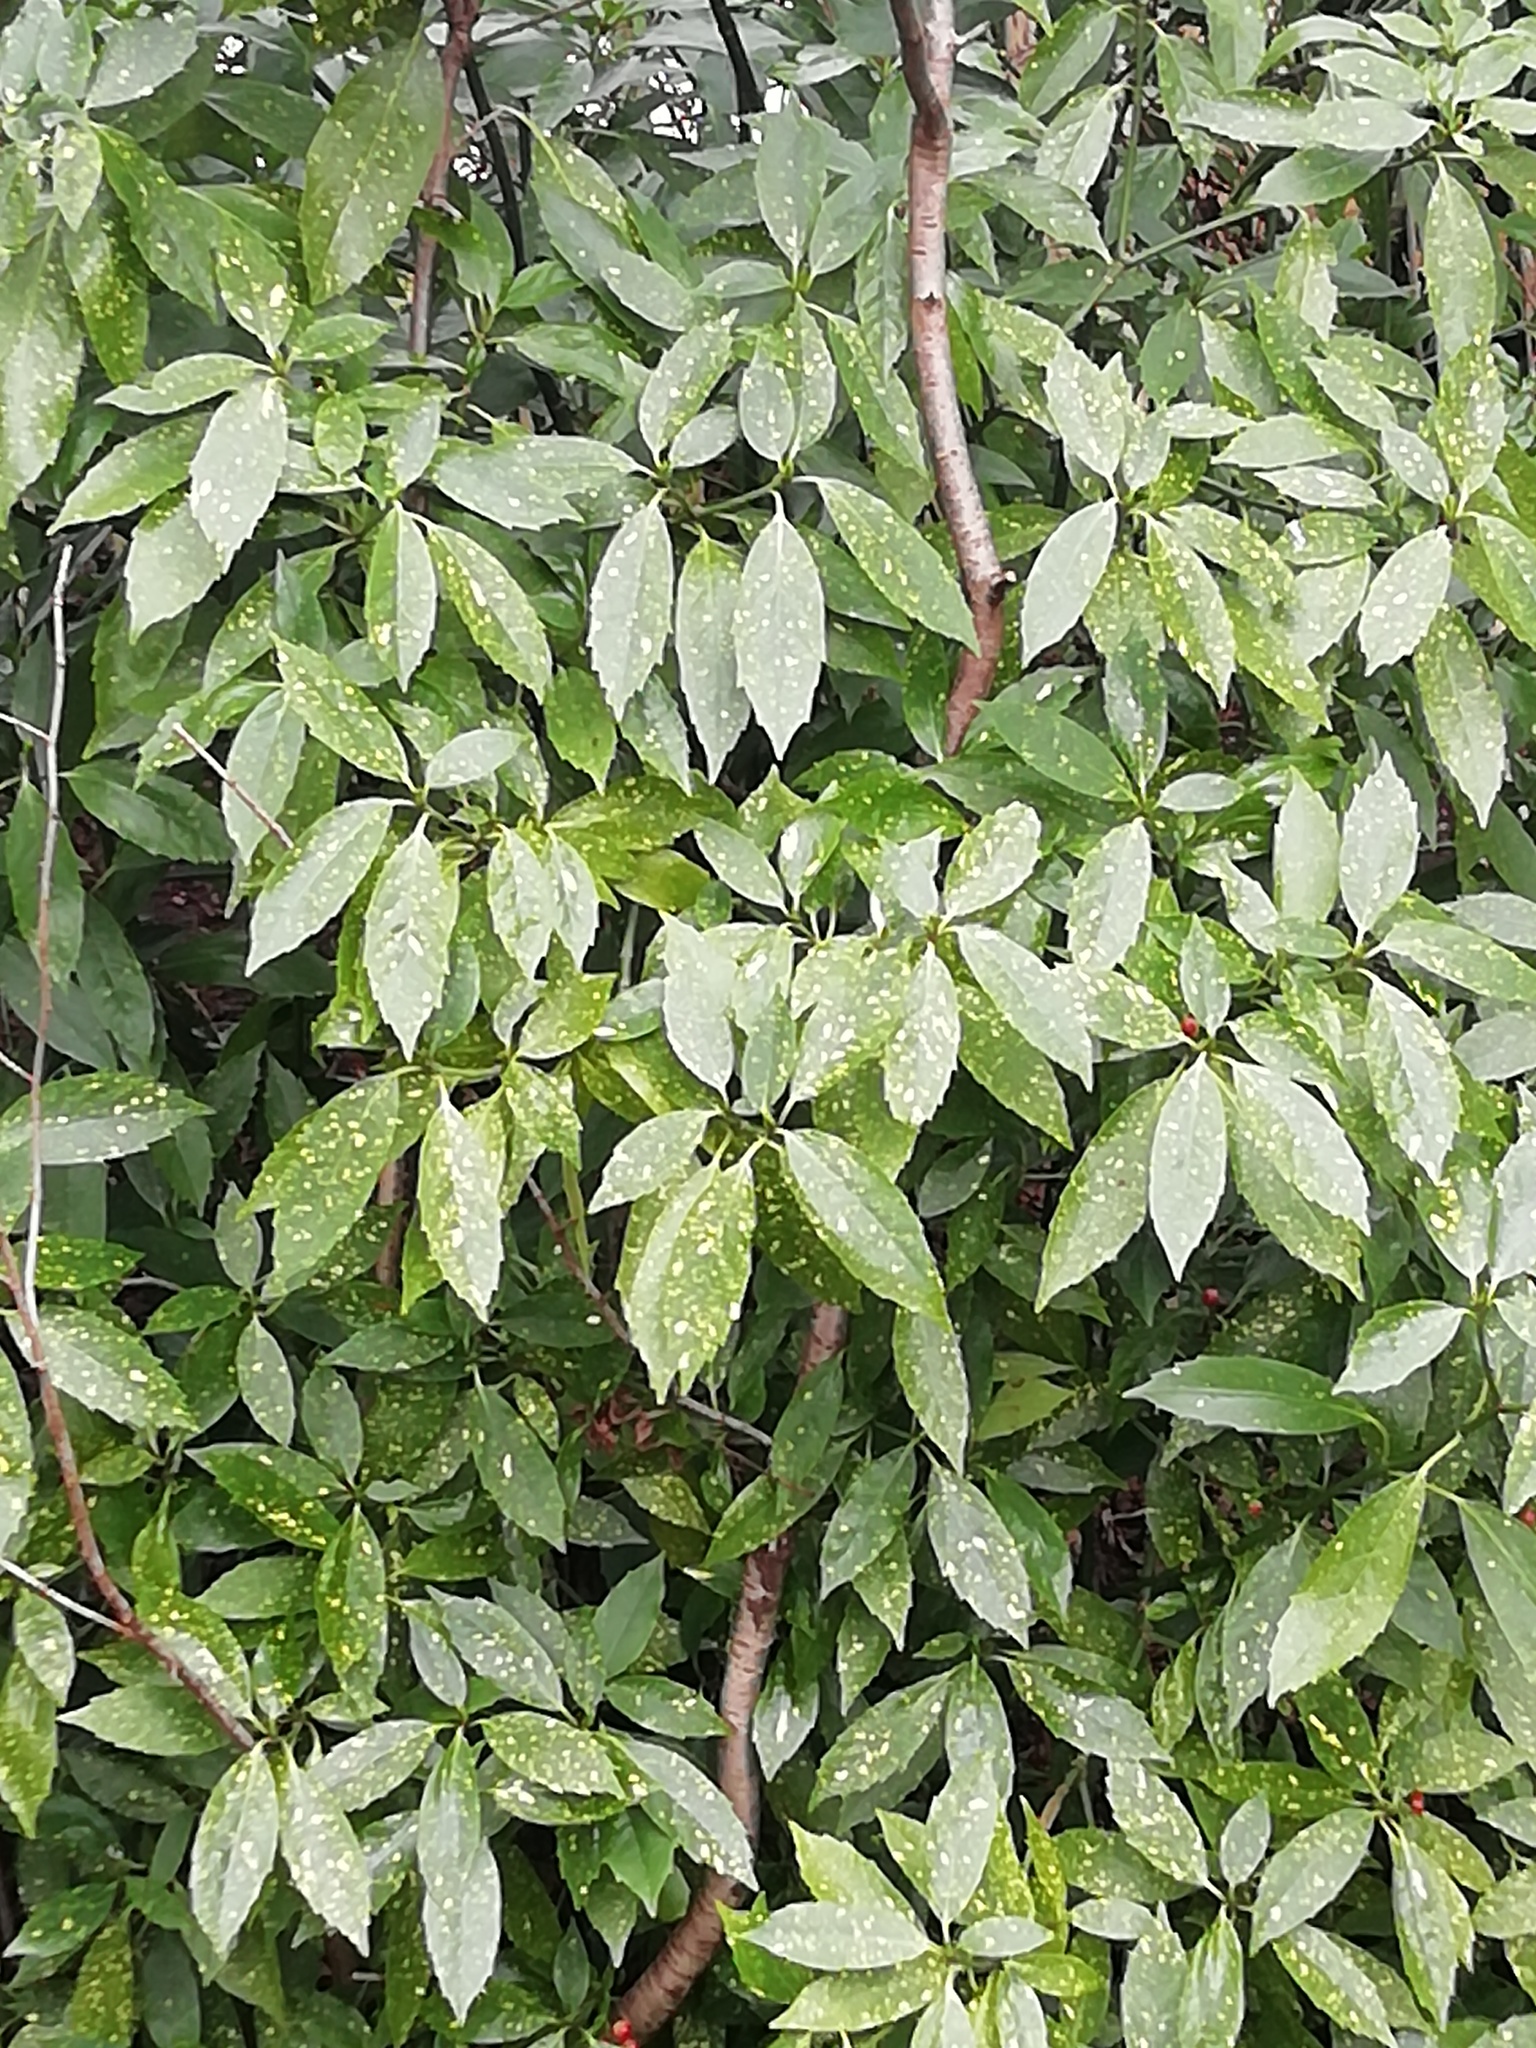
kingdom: Plantae
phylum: Tracheophyta
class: Magnoliopsida
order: Garryales
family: Garryaceae
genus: Aucuba
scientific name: Aucuba japonica
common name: Spotted-laurel
